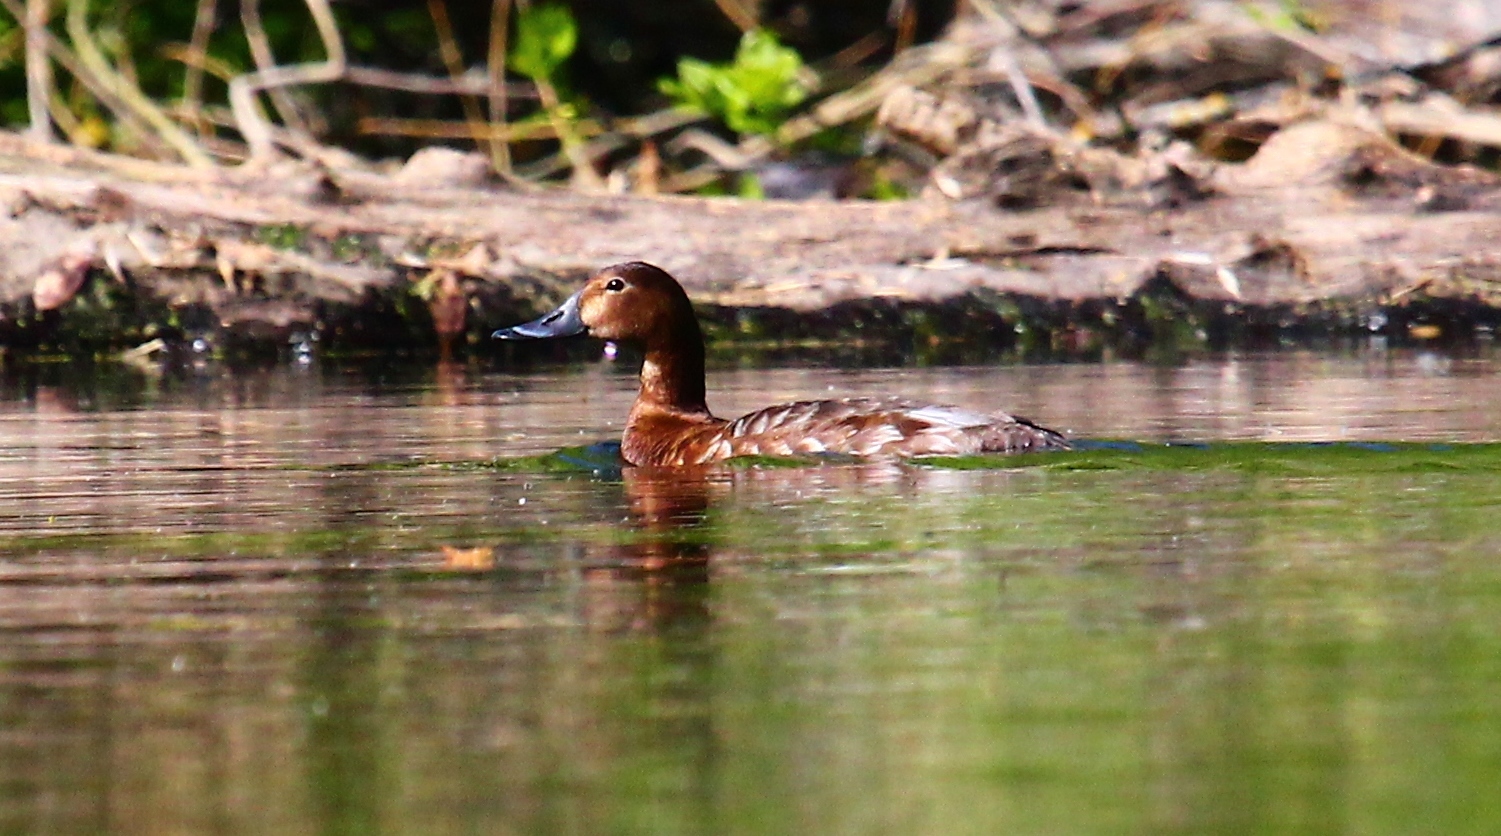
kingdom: Animalia
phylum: Chordata
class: Aves
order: Anseriformes
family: Anatidae
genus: Aythya
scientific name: Aythya ferina
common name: Common pochard
